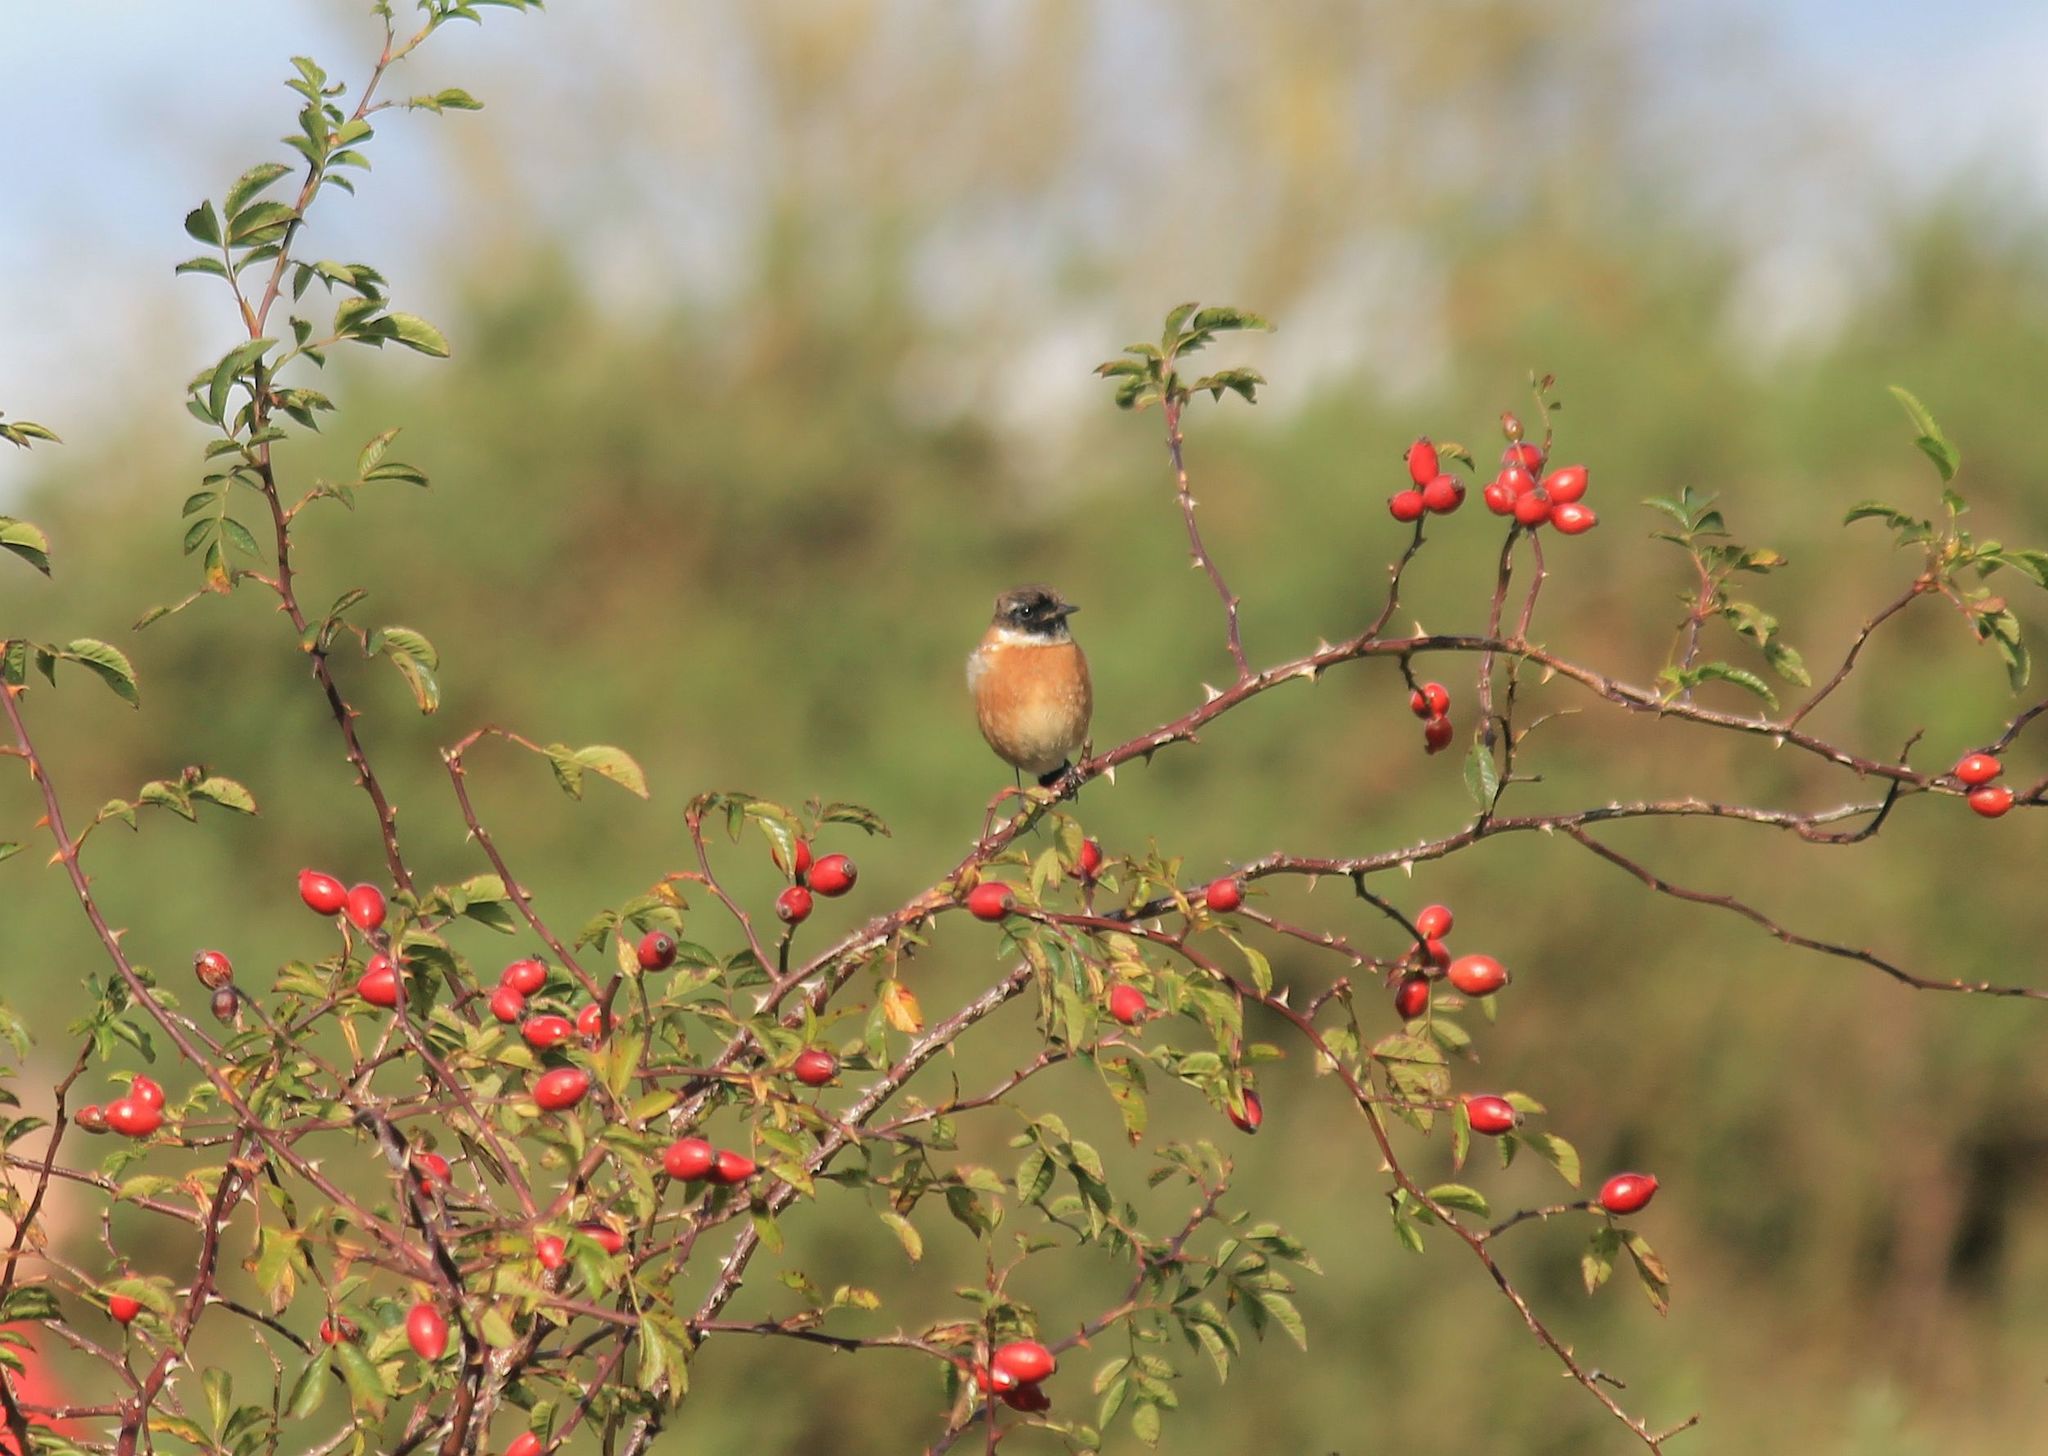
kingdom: Animalia
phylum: Chordata
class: Aves
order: Passeriformes
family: Muscicapidae
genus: Saxicola
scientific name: Saxicola rubicola
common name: European stonechat
